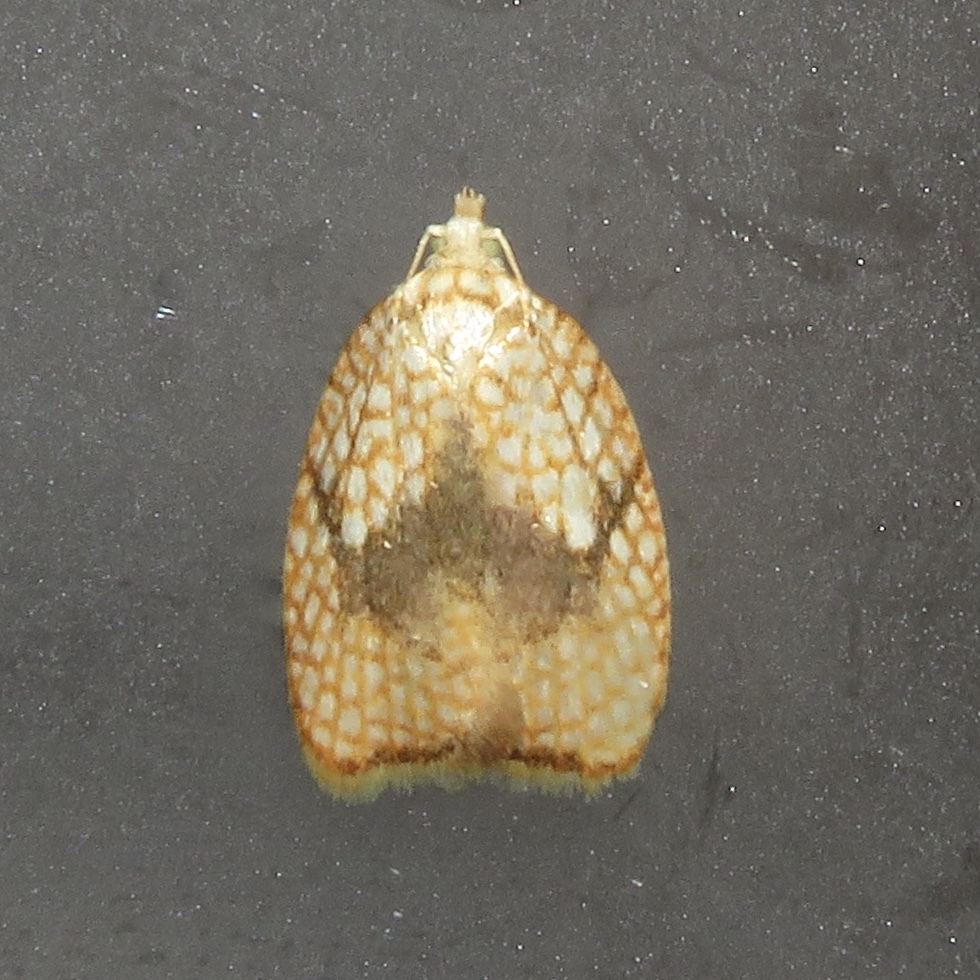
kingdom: Animalia
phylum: Arthropoda
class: Insecta
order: Lepidoptera
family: Tortricidae
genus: Acleris
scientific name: Acleris forsskaleana
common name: Maple button
